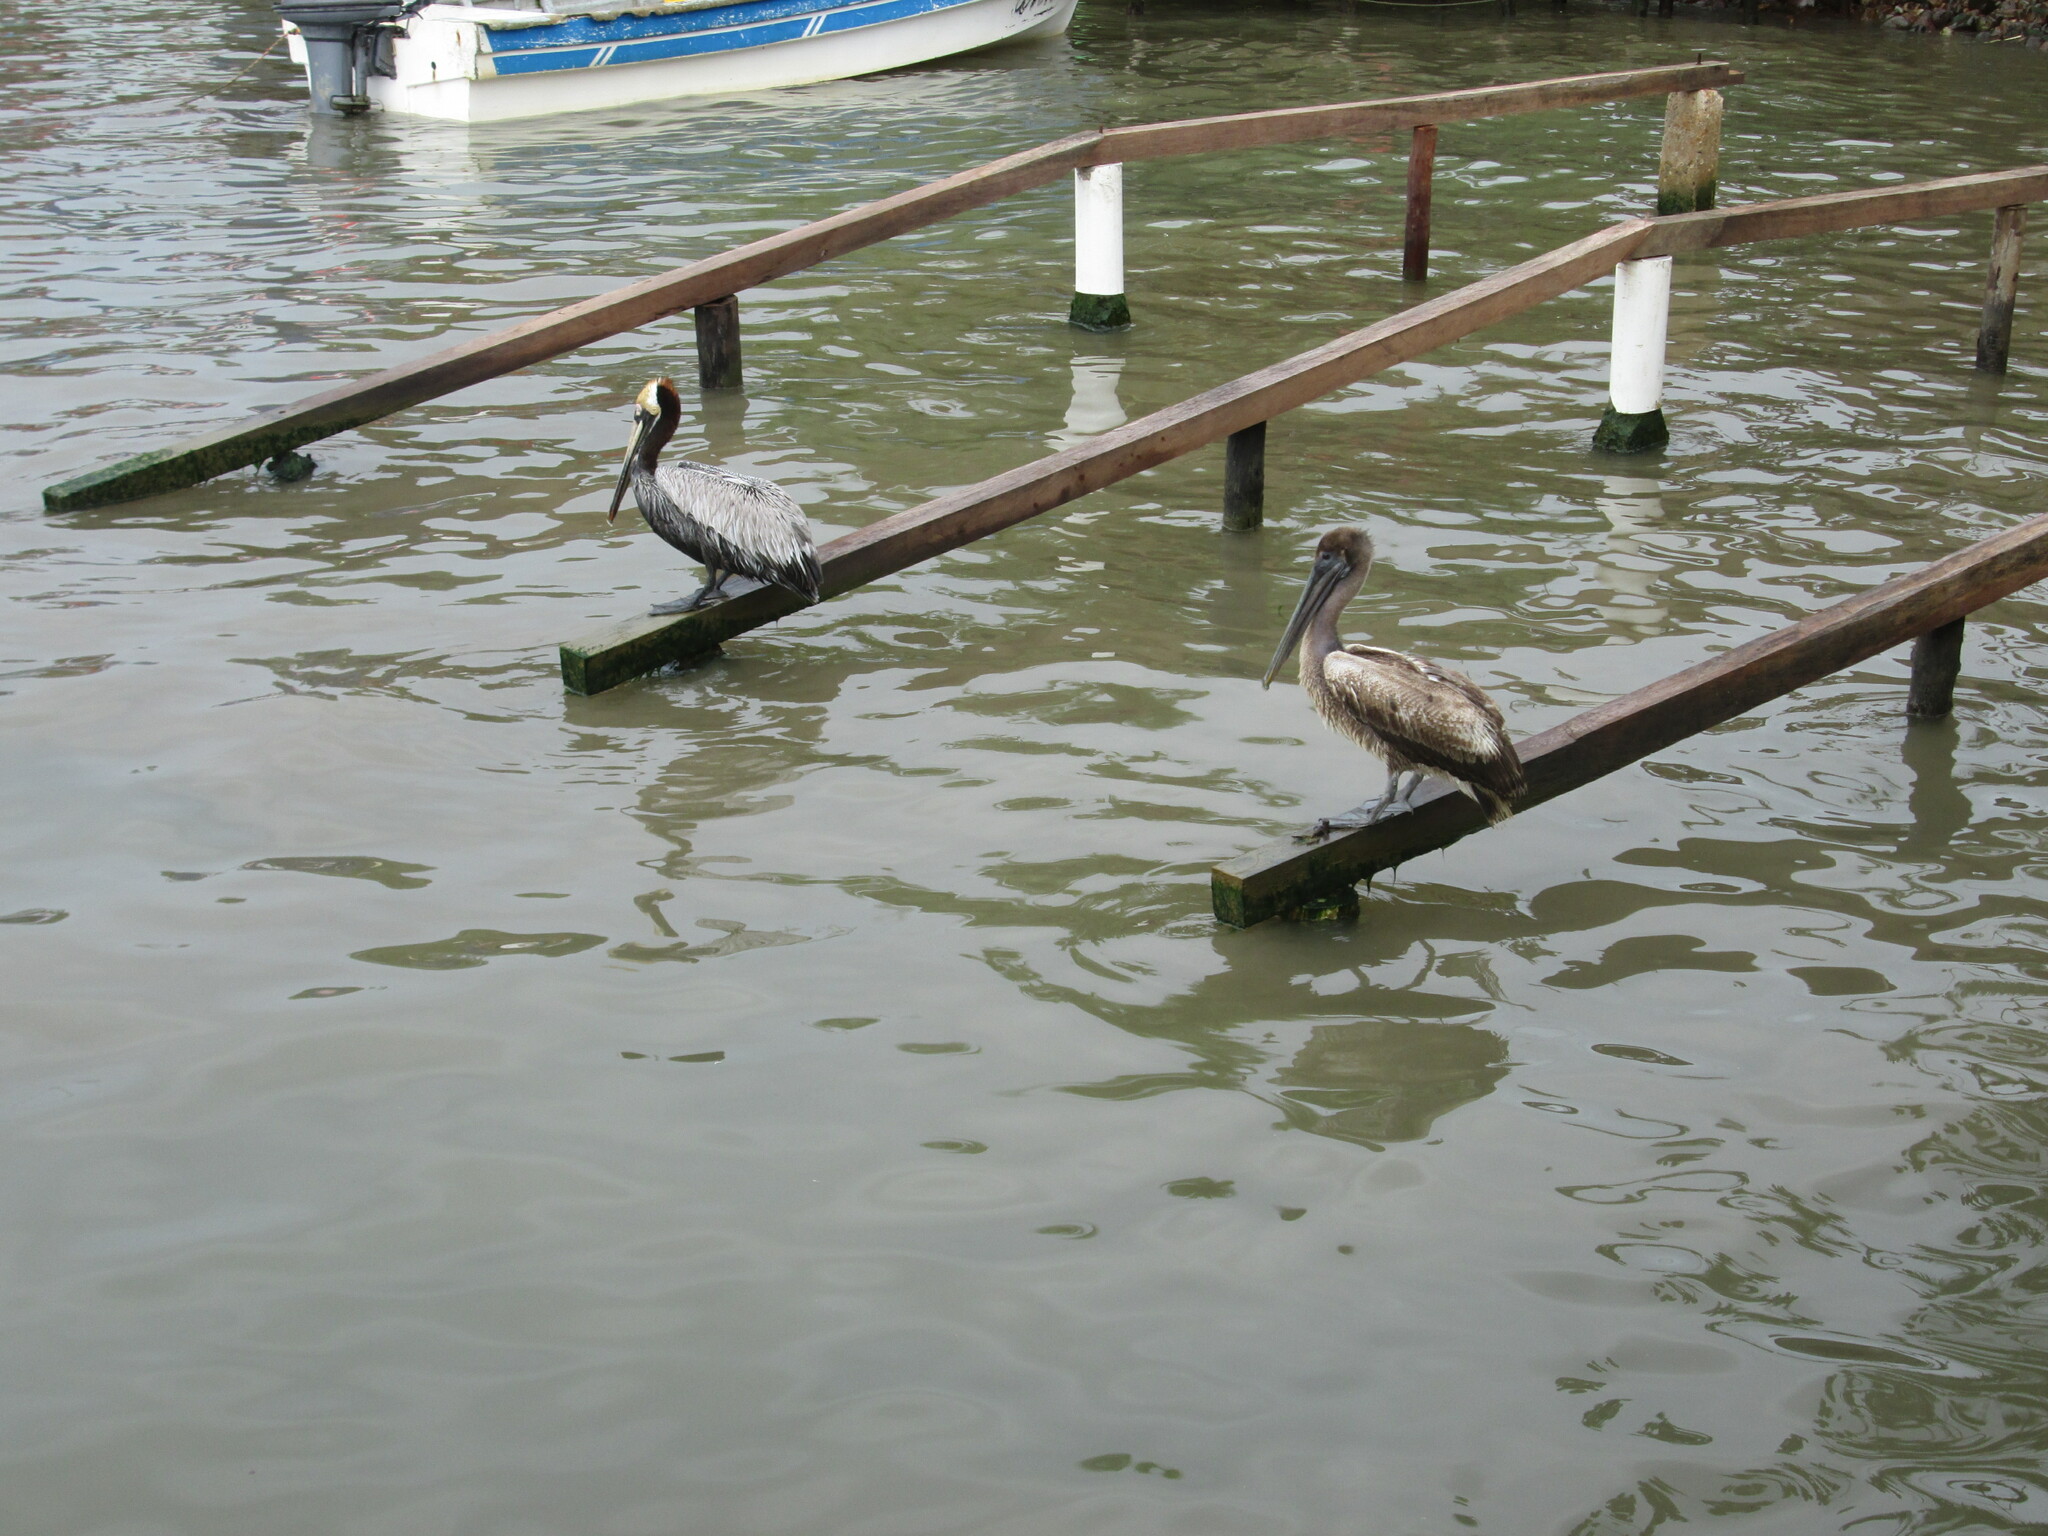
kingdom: Animalia
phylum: Chordata
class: Aves
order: Pelecaniformes
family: Pelecanidae
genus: Pelecanus
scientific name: Pelecanus occidentalis
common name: Brown pelican
